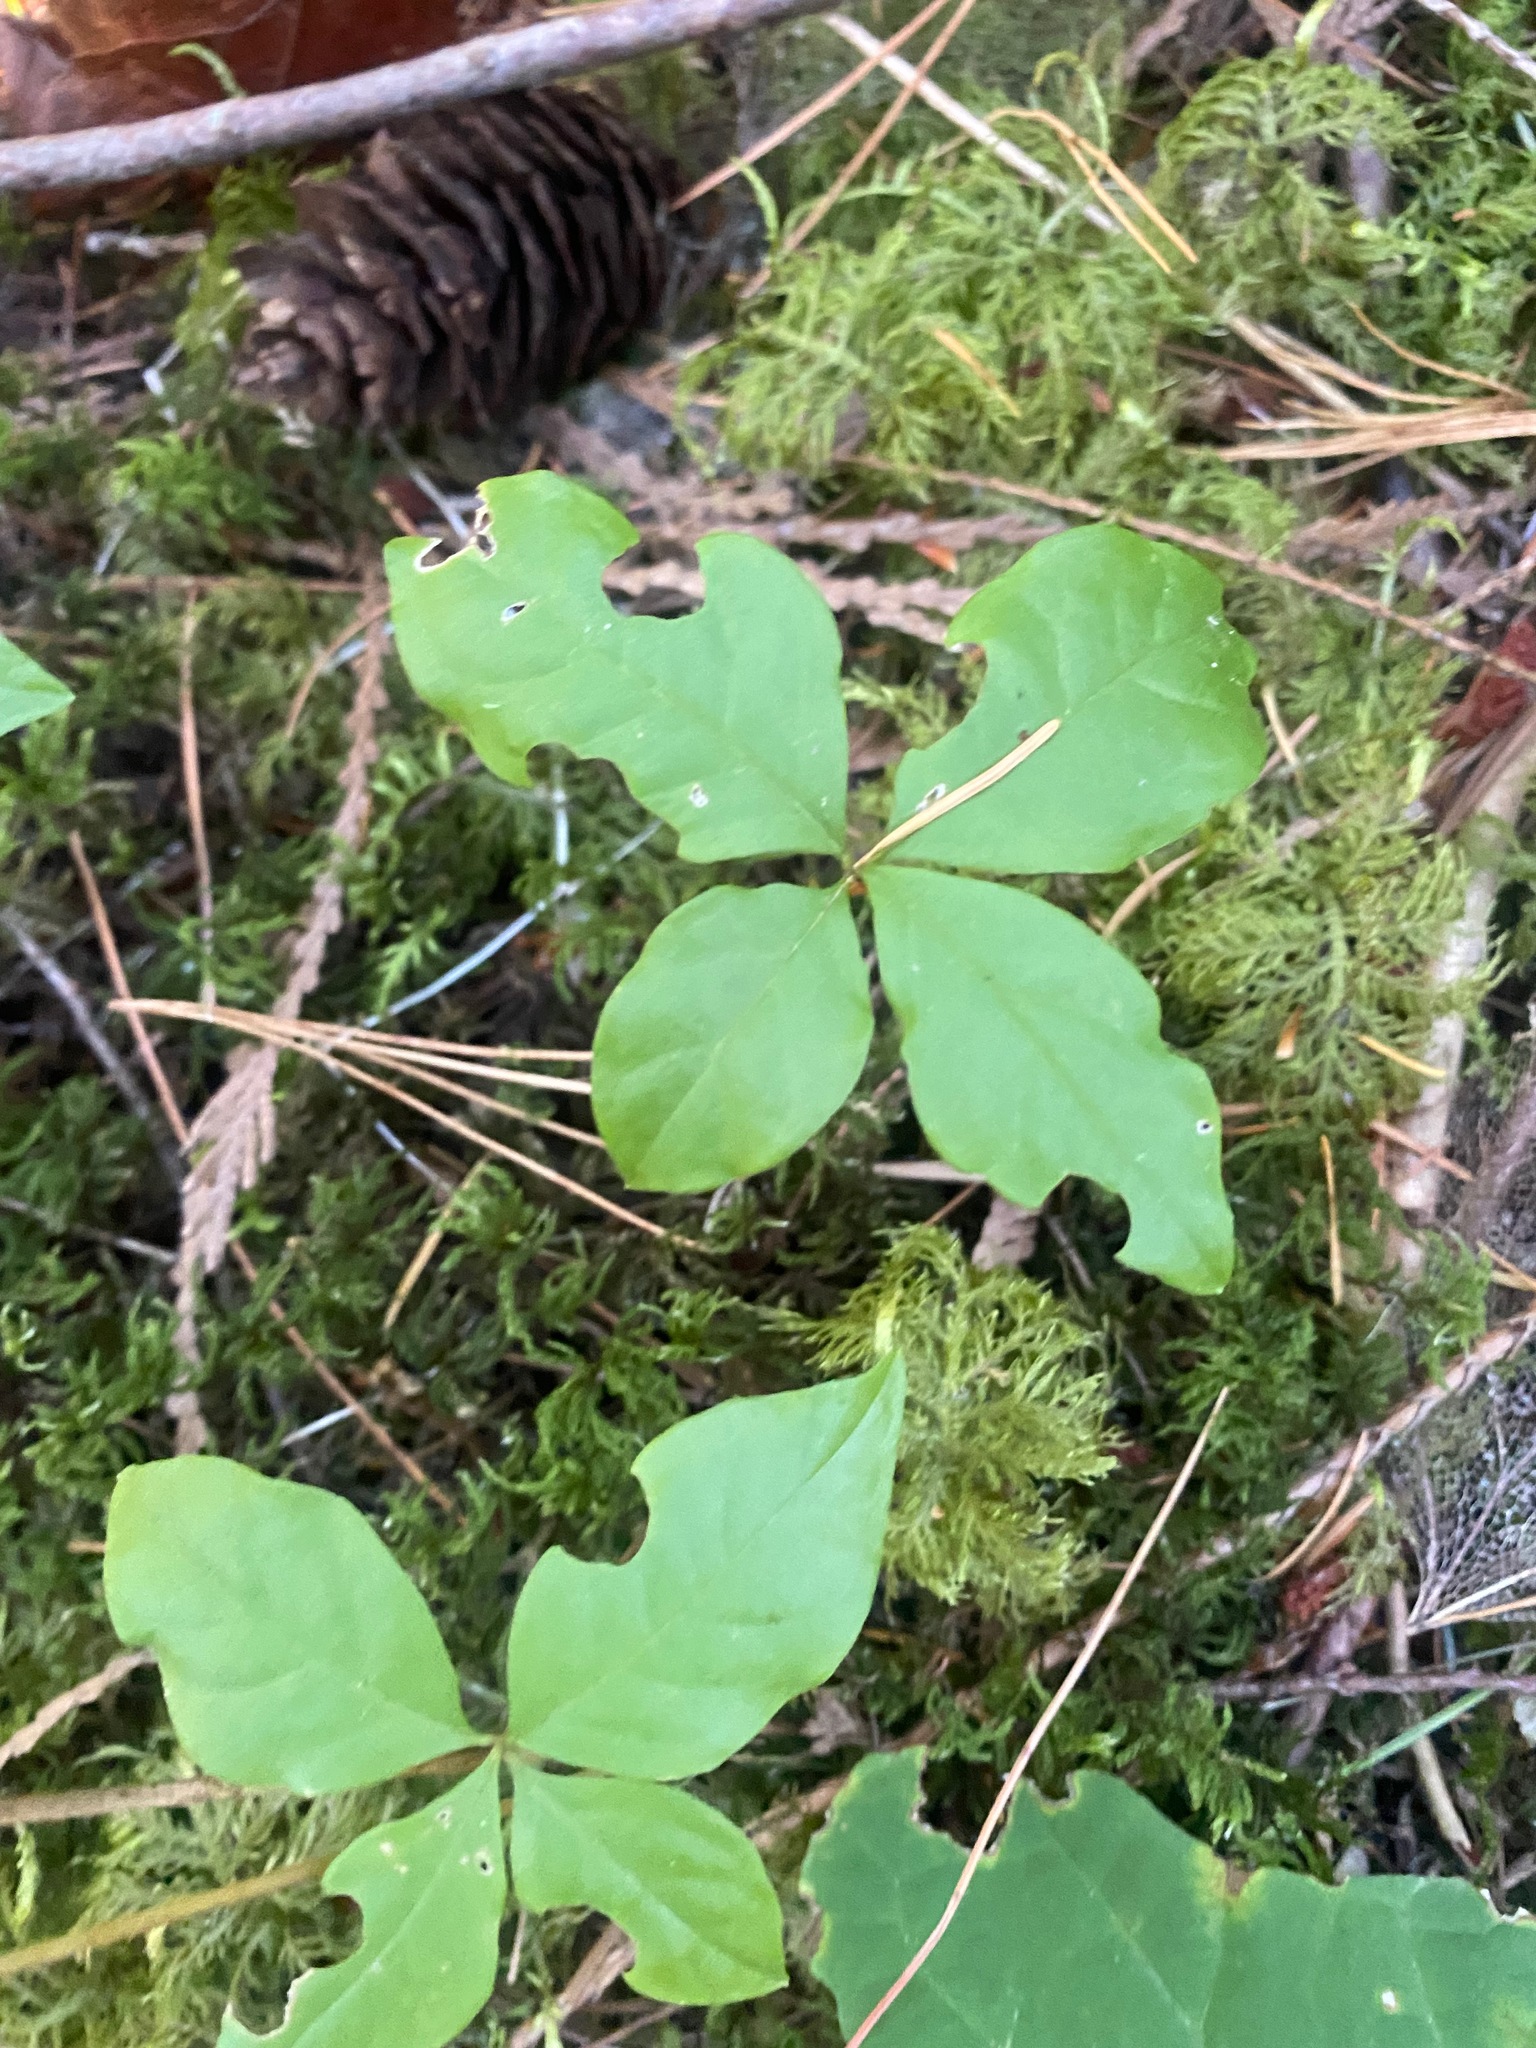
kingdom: Plantae
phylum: Tracheophyta
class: Magnoliopsida
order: Ericales
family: Primulaceae
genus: Lysimachia
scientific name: Lysimachia latifolia
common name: Pacific starflower
